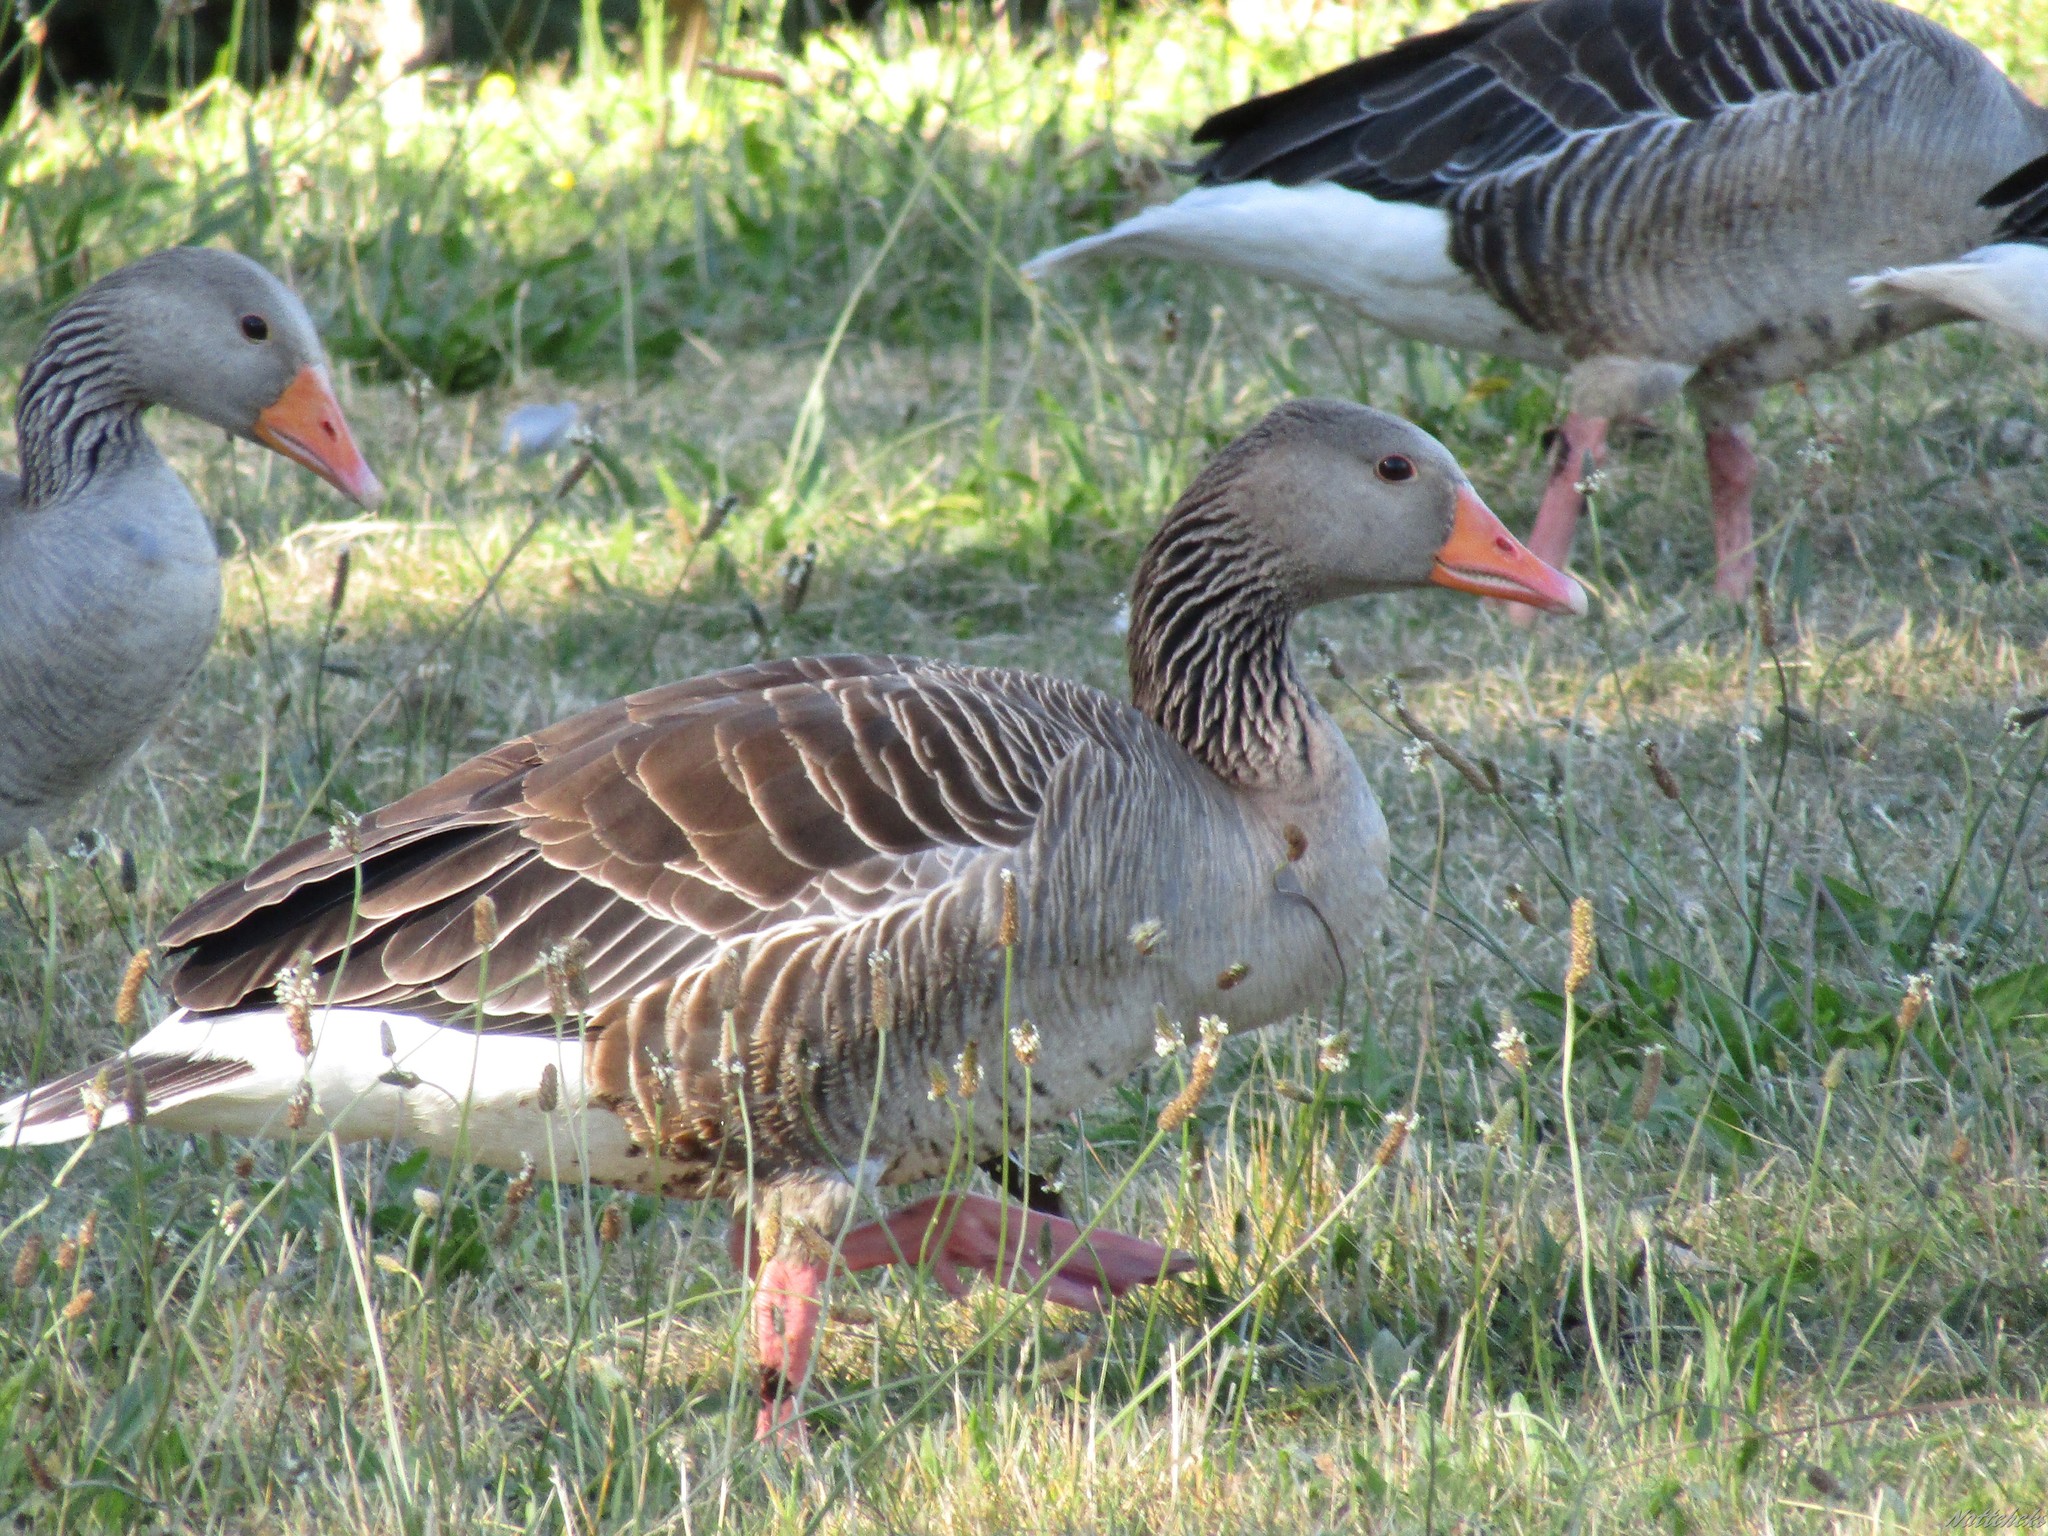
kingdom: Animalia
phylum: Chordata
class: Aves
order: Anseriformes
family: Anatidae
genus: Anser
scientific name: Anser anser
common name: Greylag goose
